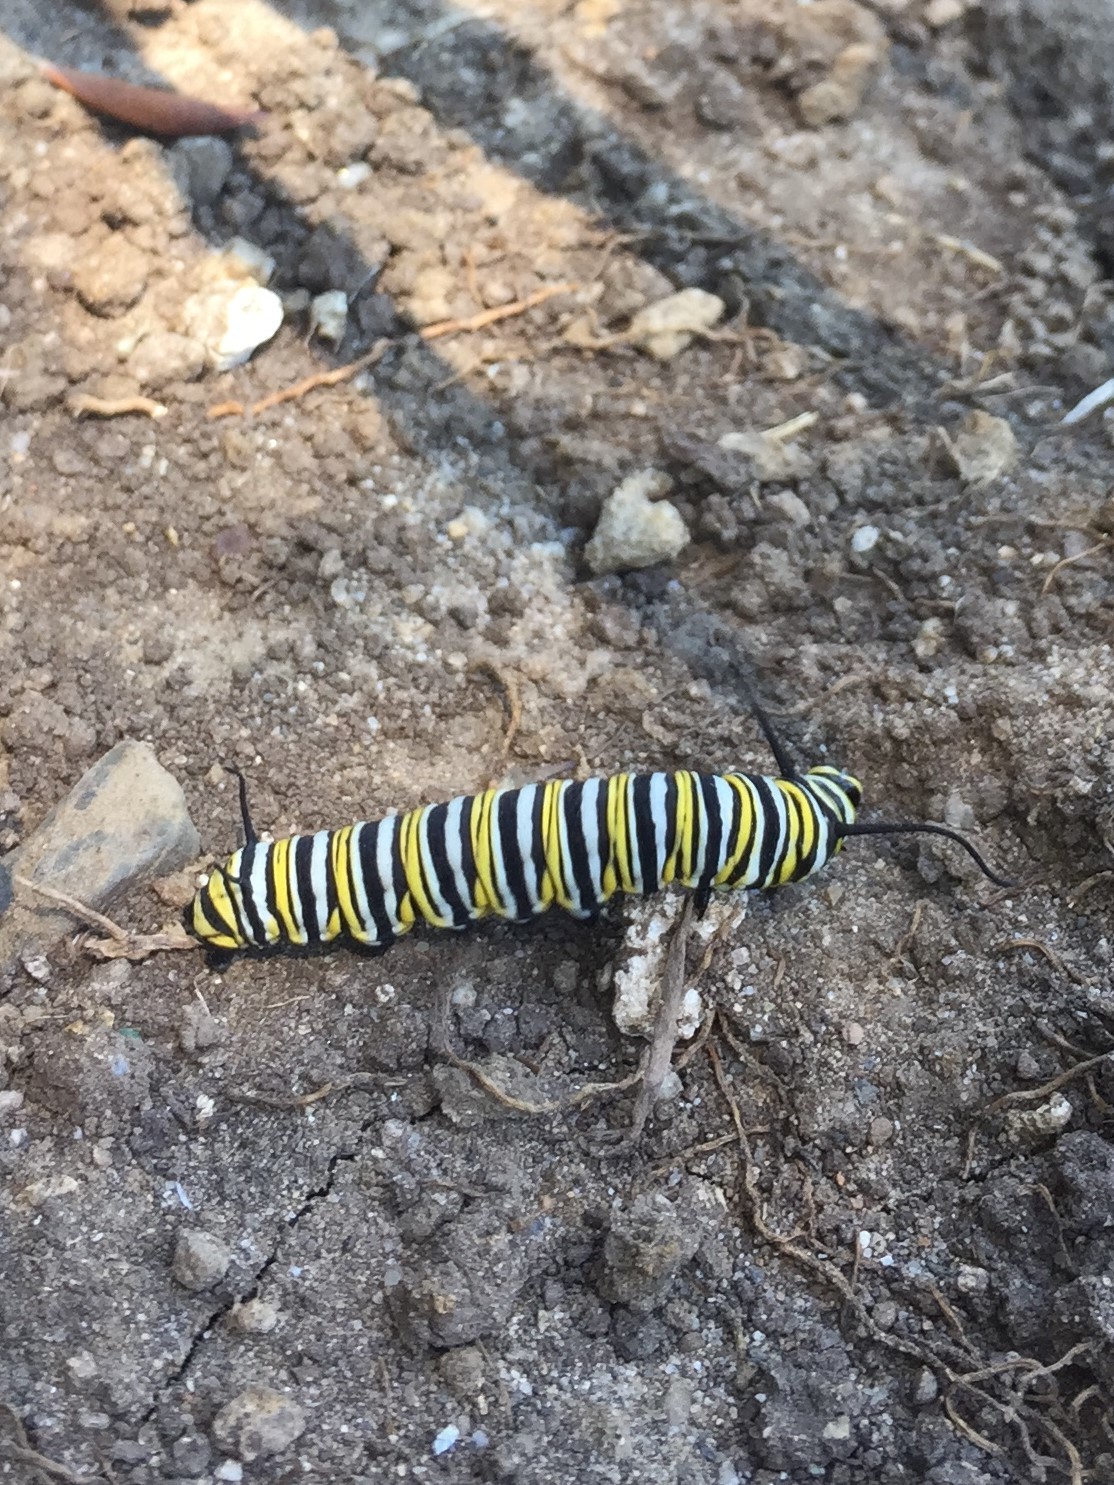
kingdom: Animalia
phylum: Arthropoda
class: Insecta
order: Lepidoptera
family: Nymphalidae
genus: Danaus
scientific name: Danaus plexippus
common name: Monarch
